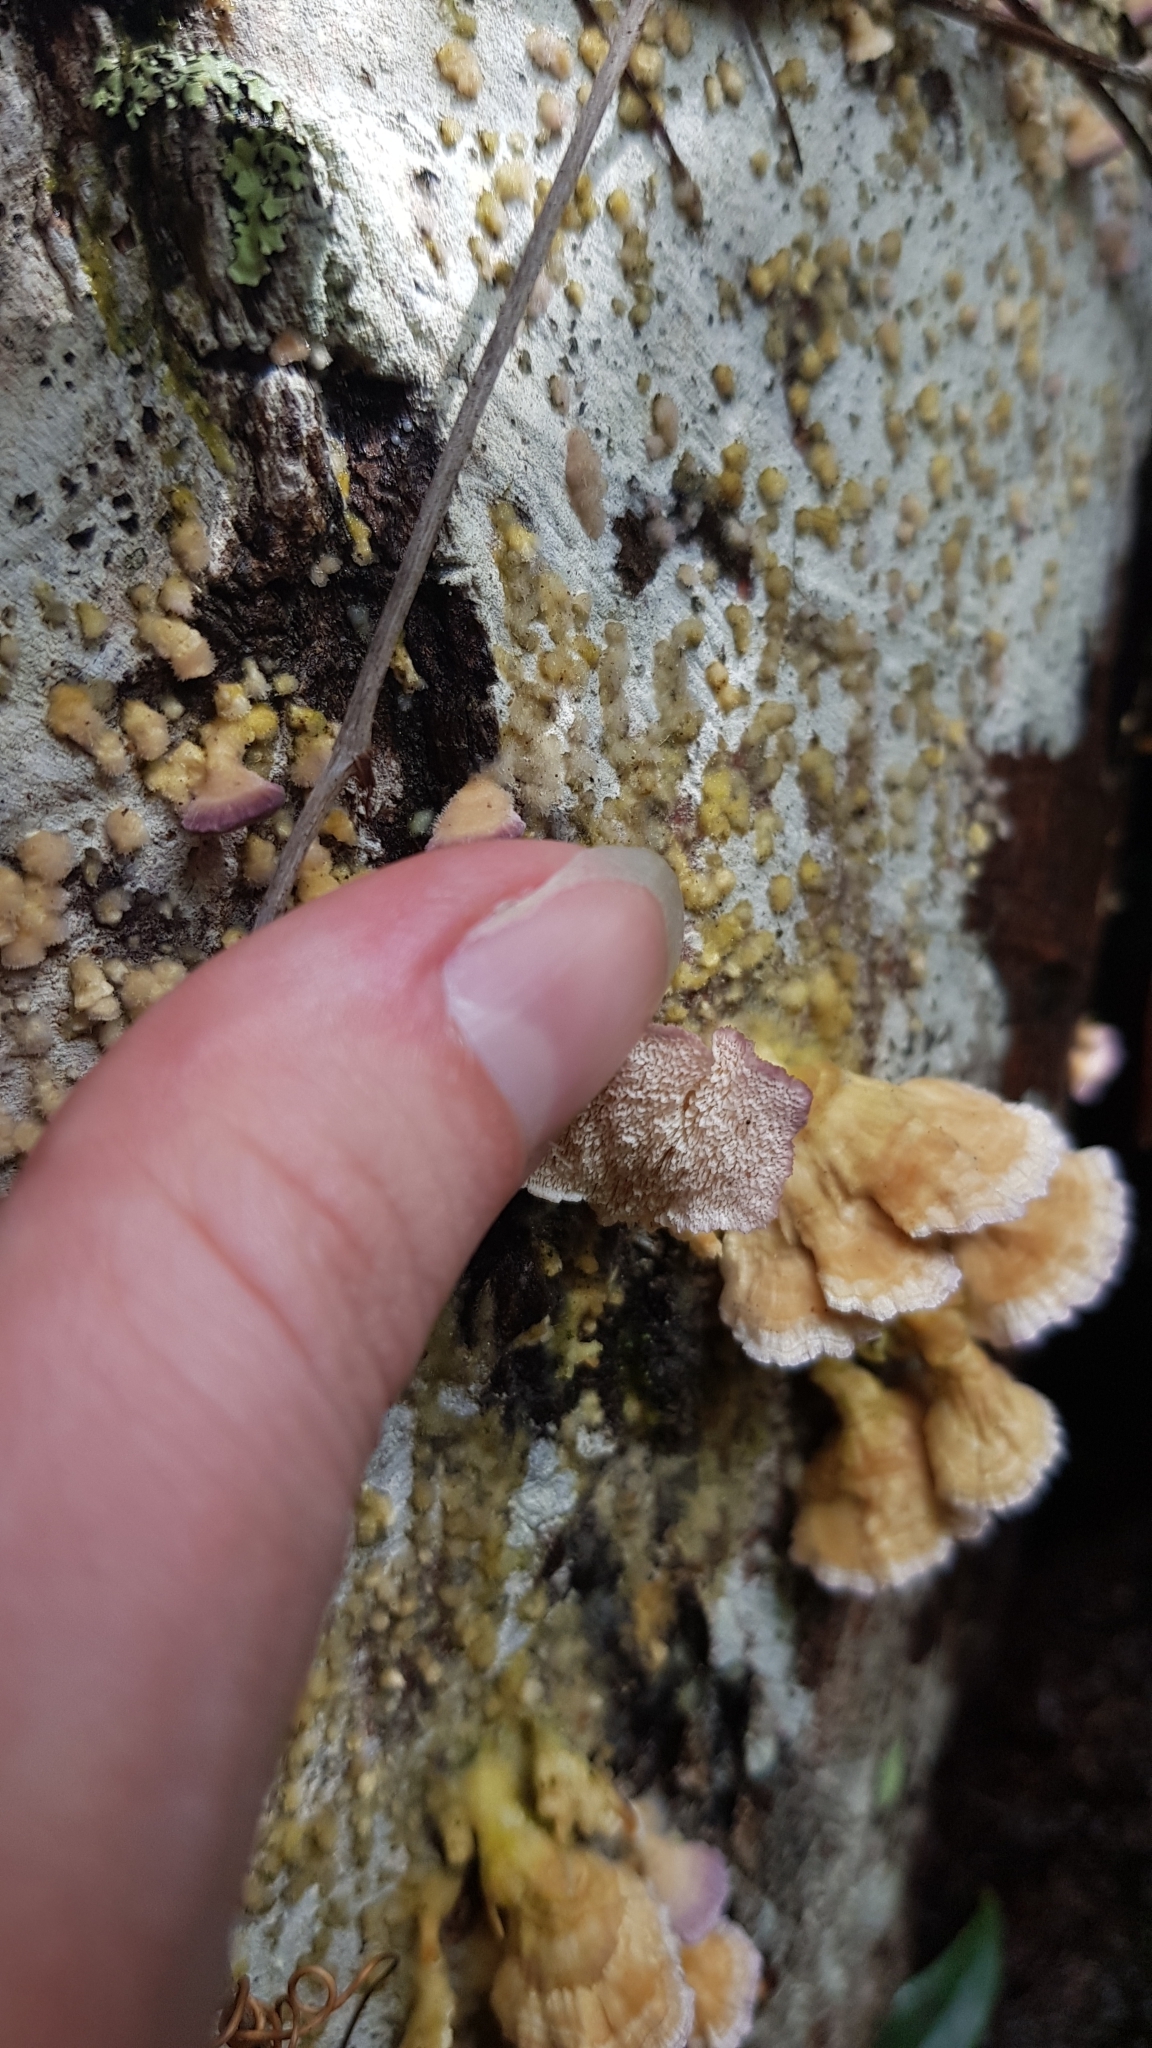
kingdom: Fungi
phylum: Basidiomycota
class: Agaricomycetes
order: Hymenochaetales
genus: Trichaptum
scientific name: Trichaptum biforme
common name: Violet-toothed polypore
